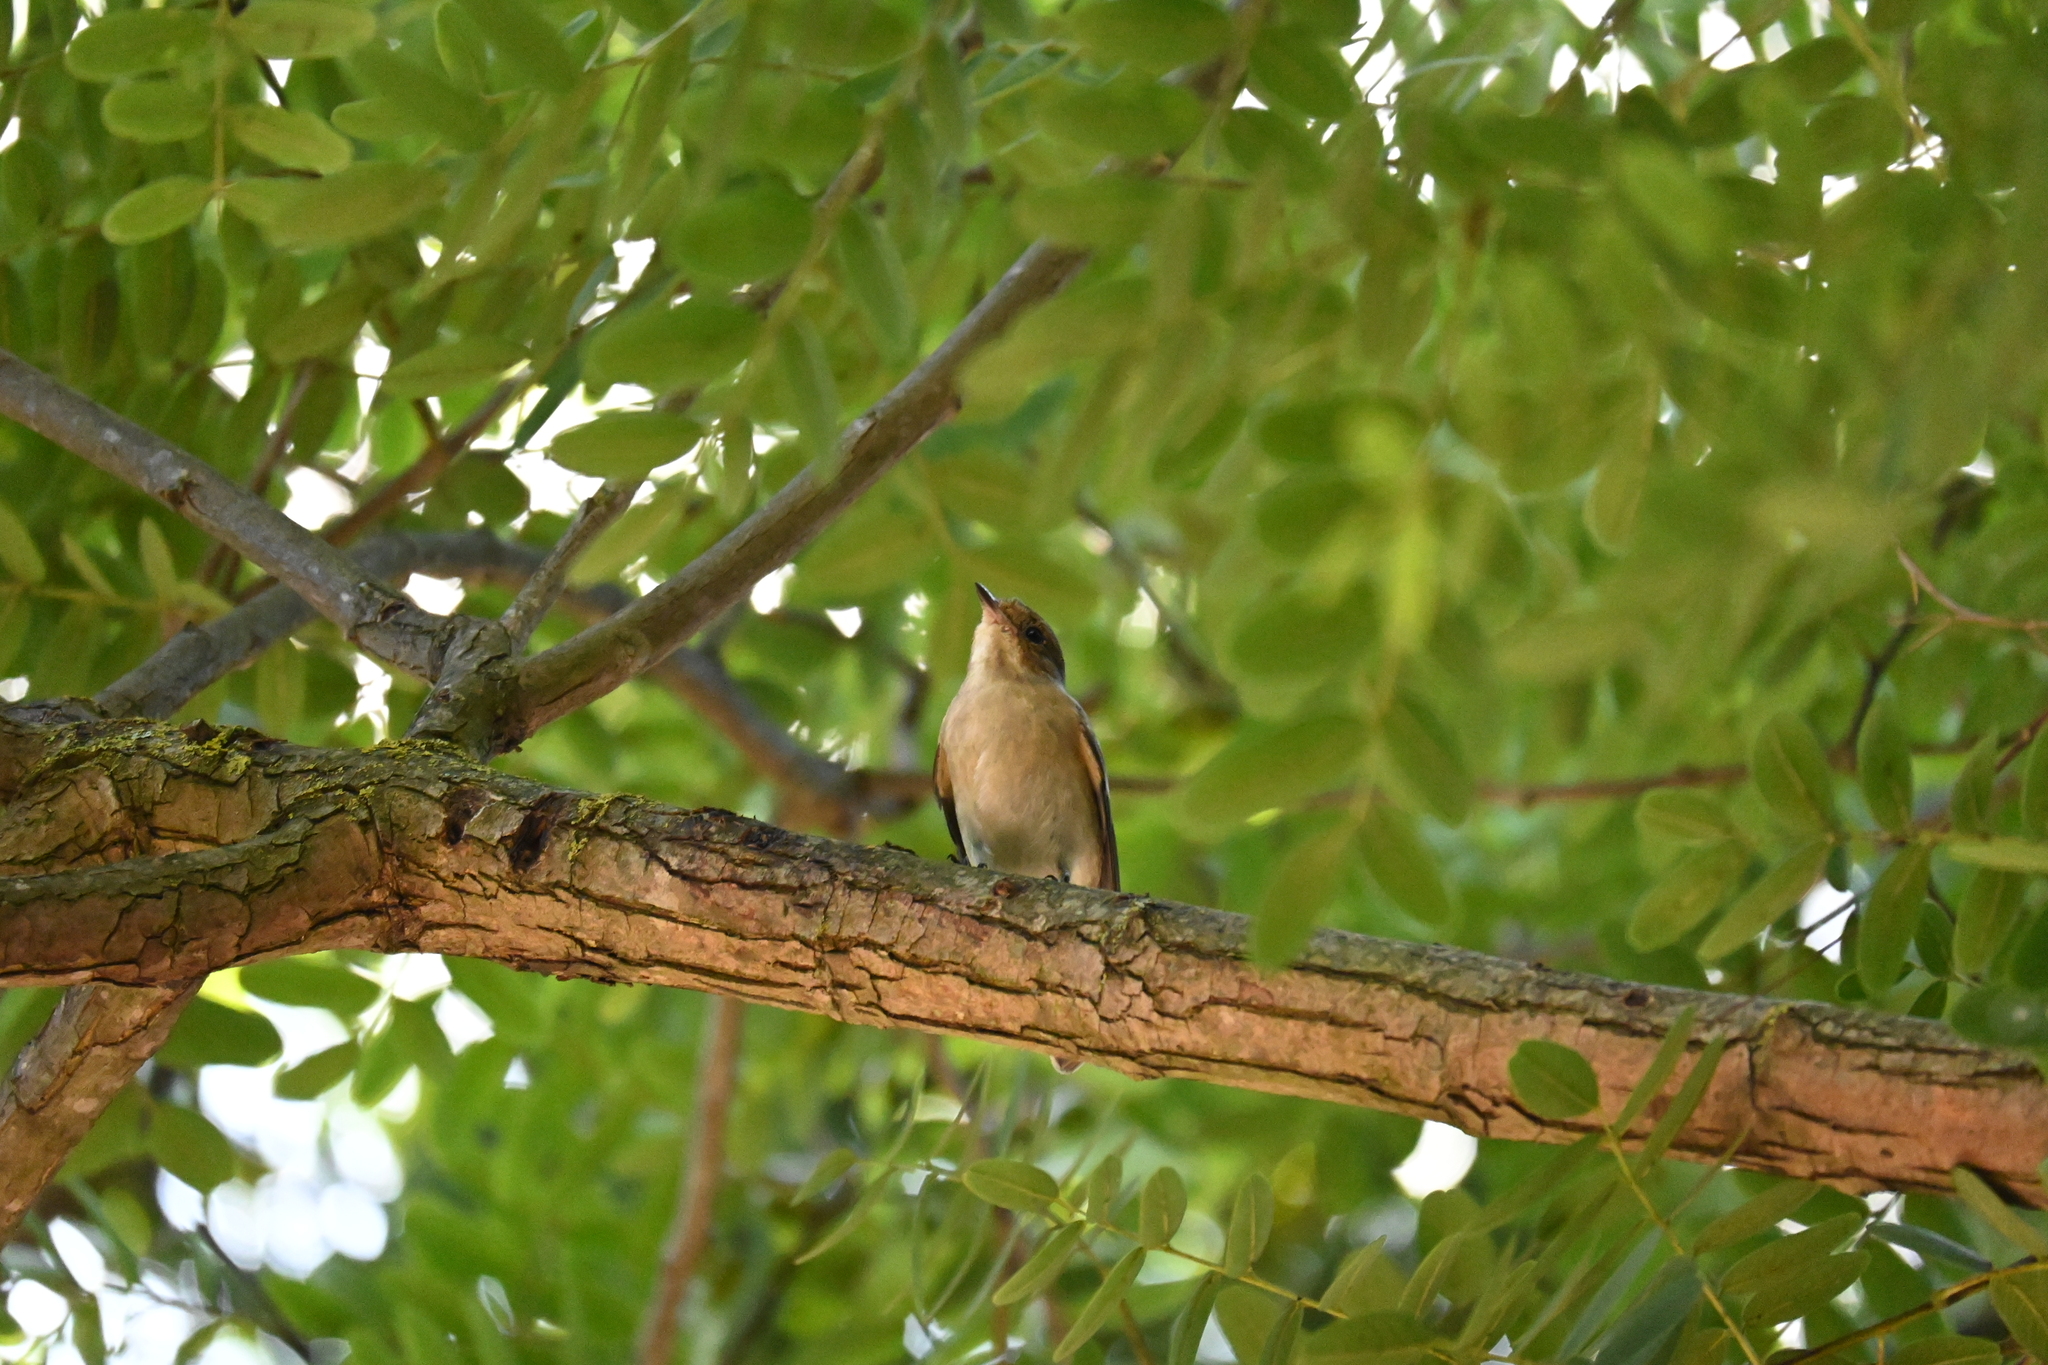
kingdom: Animalia
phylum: Chordata
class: Aves
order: Passeriformes
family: Muscicapidae
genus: Ficedula
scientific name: Ficedula hypoleuca
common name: European pied flycatcher
